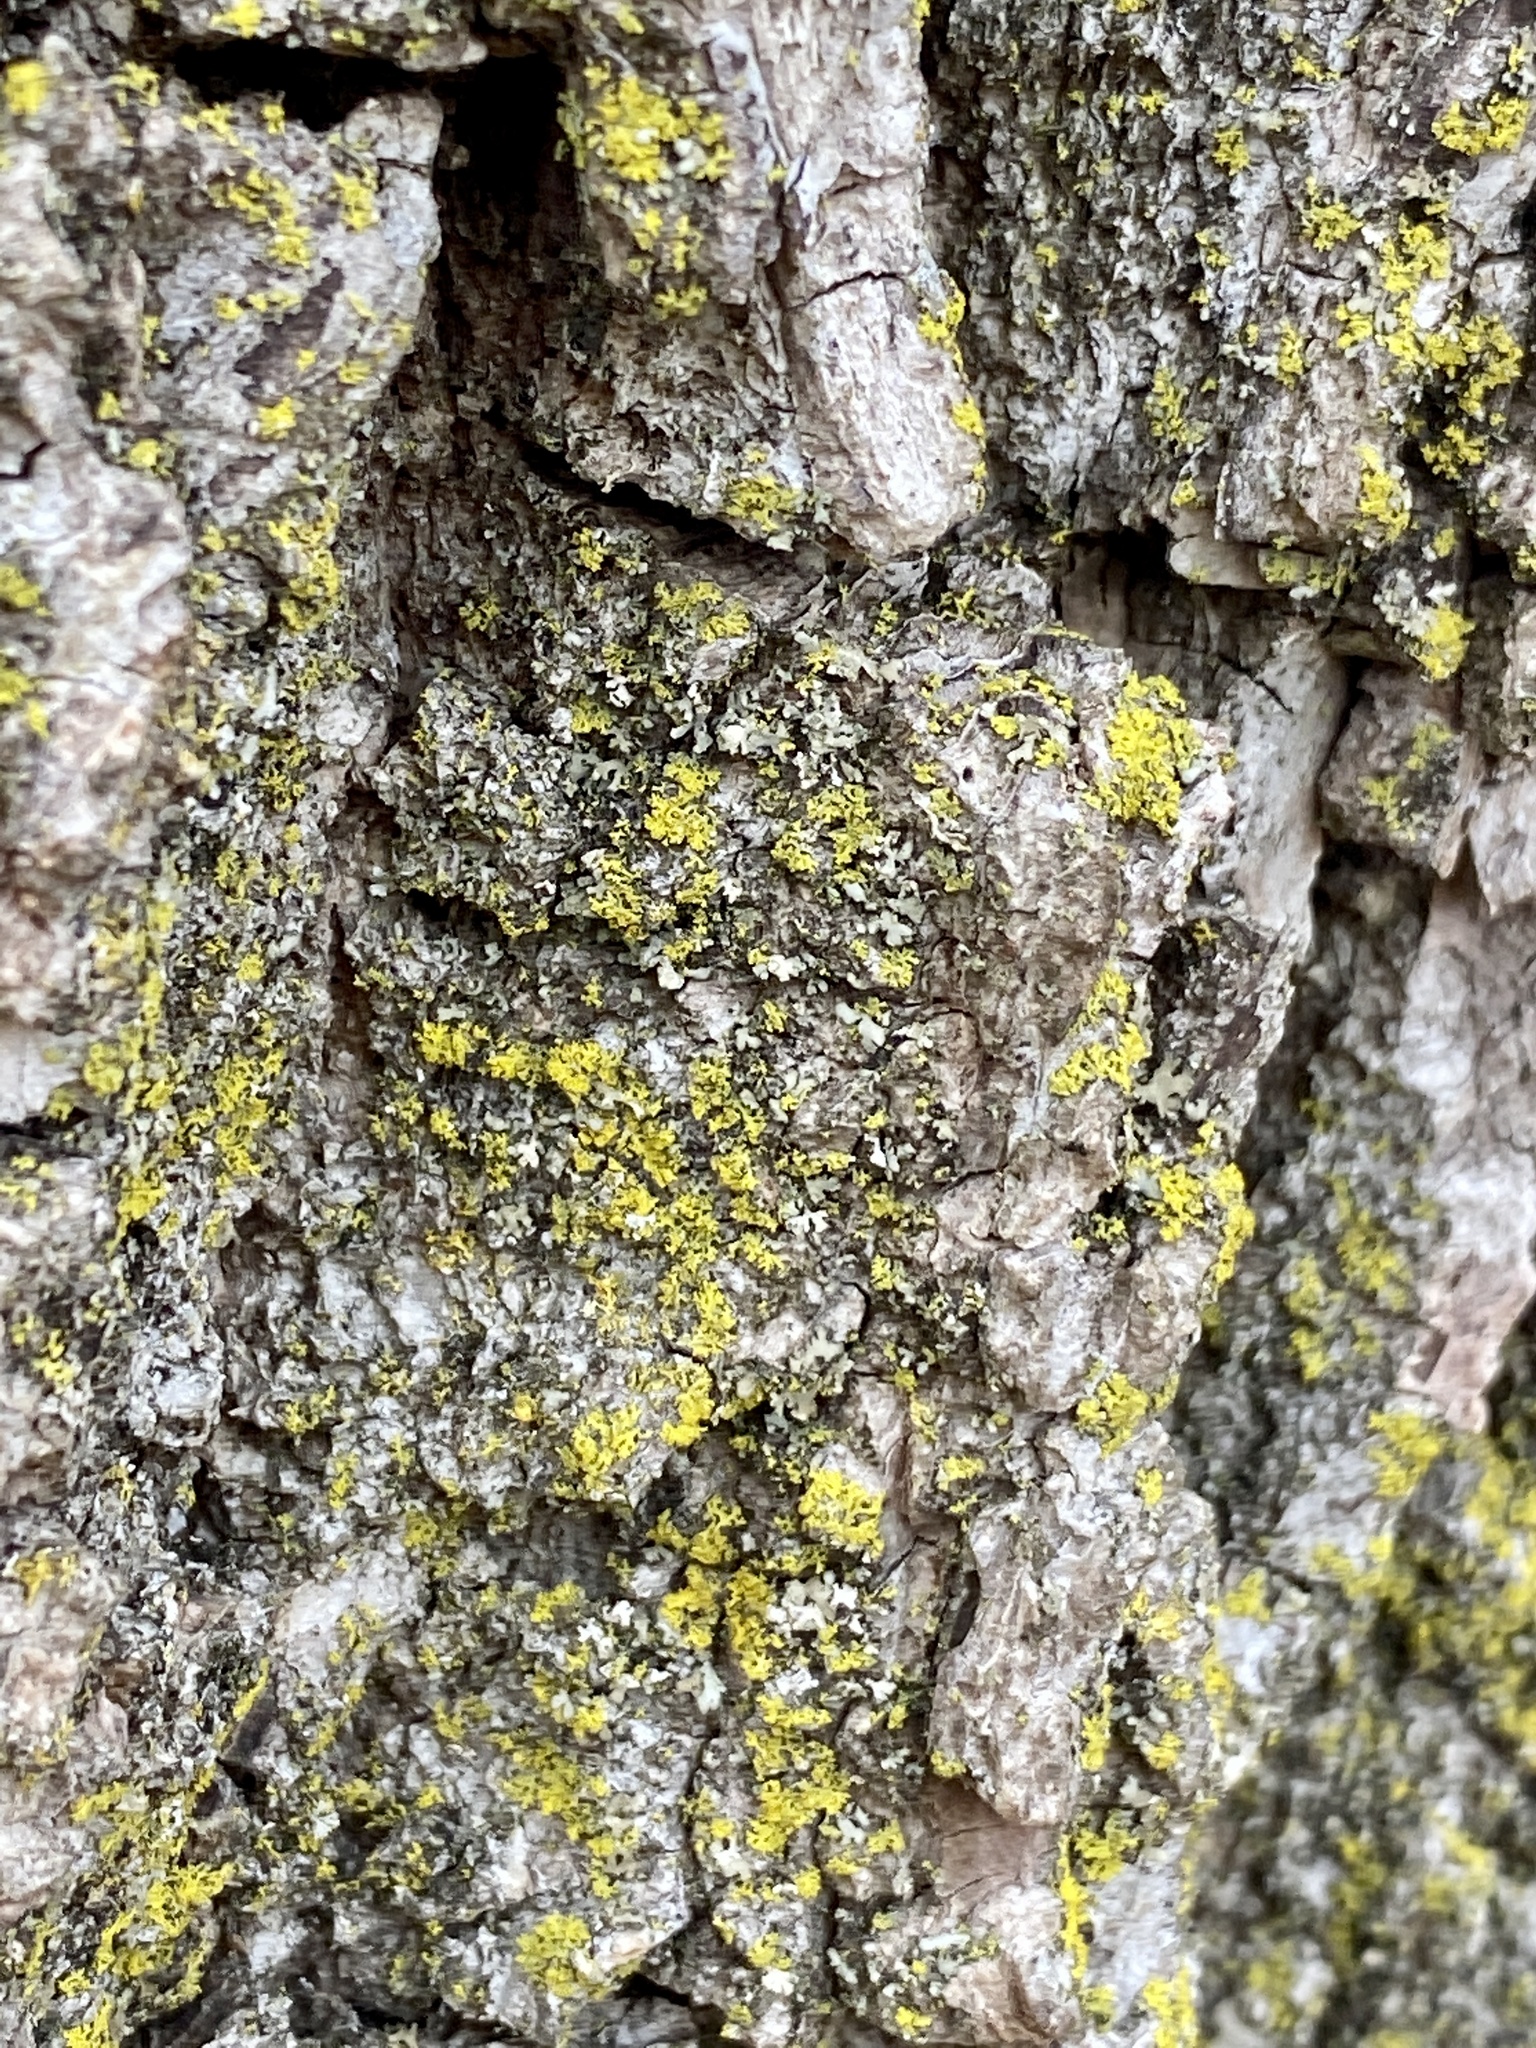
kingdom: Fungi
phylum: Ascomycota
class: Candelariomycetes
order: Candelariales
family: Candelariaceae
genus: Candelaria
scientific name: Candelaria concolor
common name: Candleflame lichen
